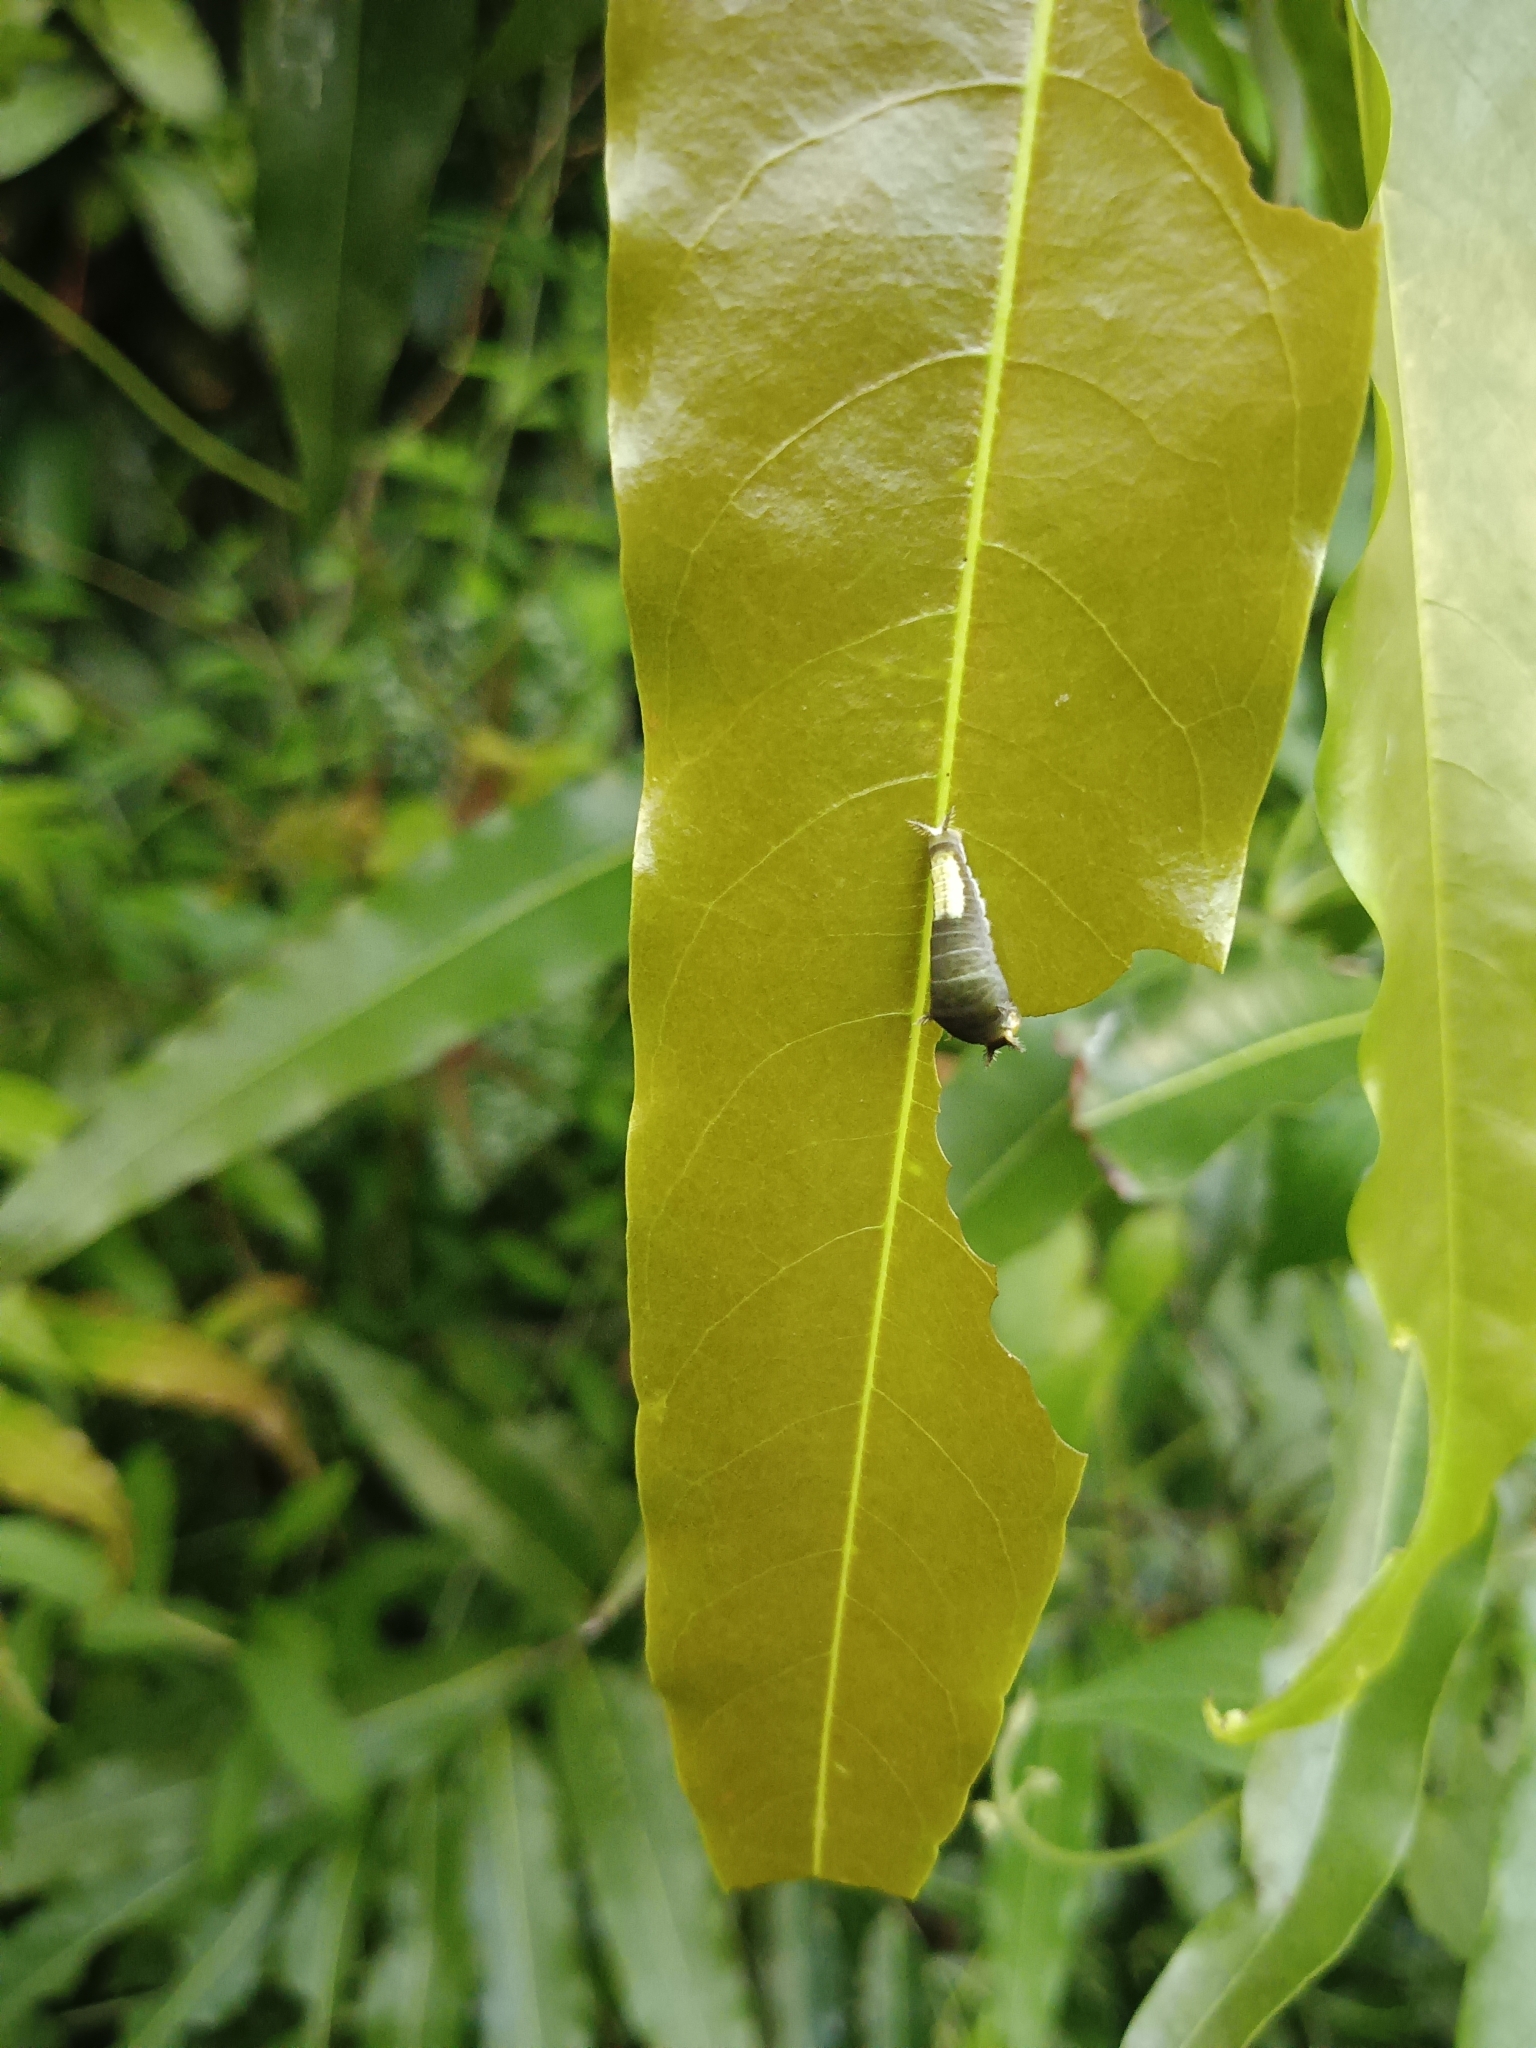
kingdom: Animalia
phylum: Arthropoda
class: Insecta
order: Lepidoptera
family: Papilionidae
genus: Graphium
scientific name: Graphium agamemnon
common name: Tailed jay
